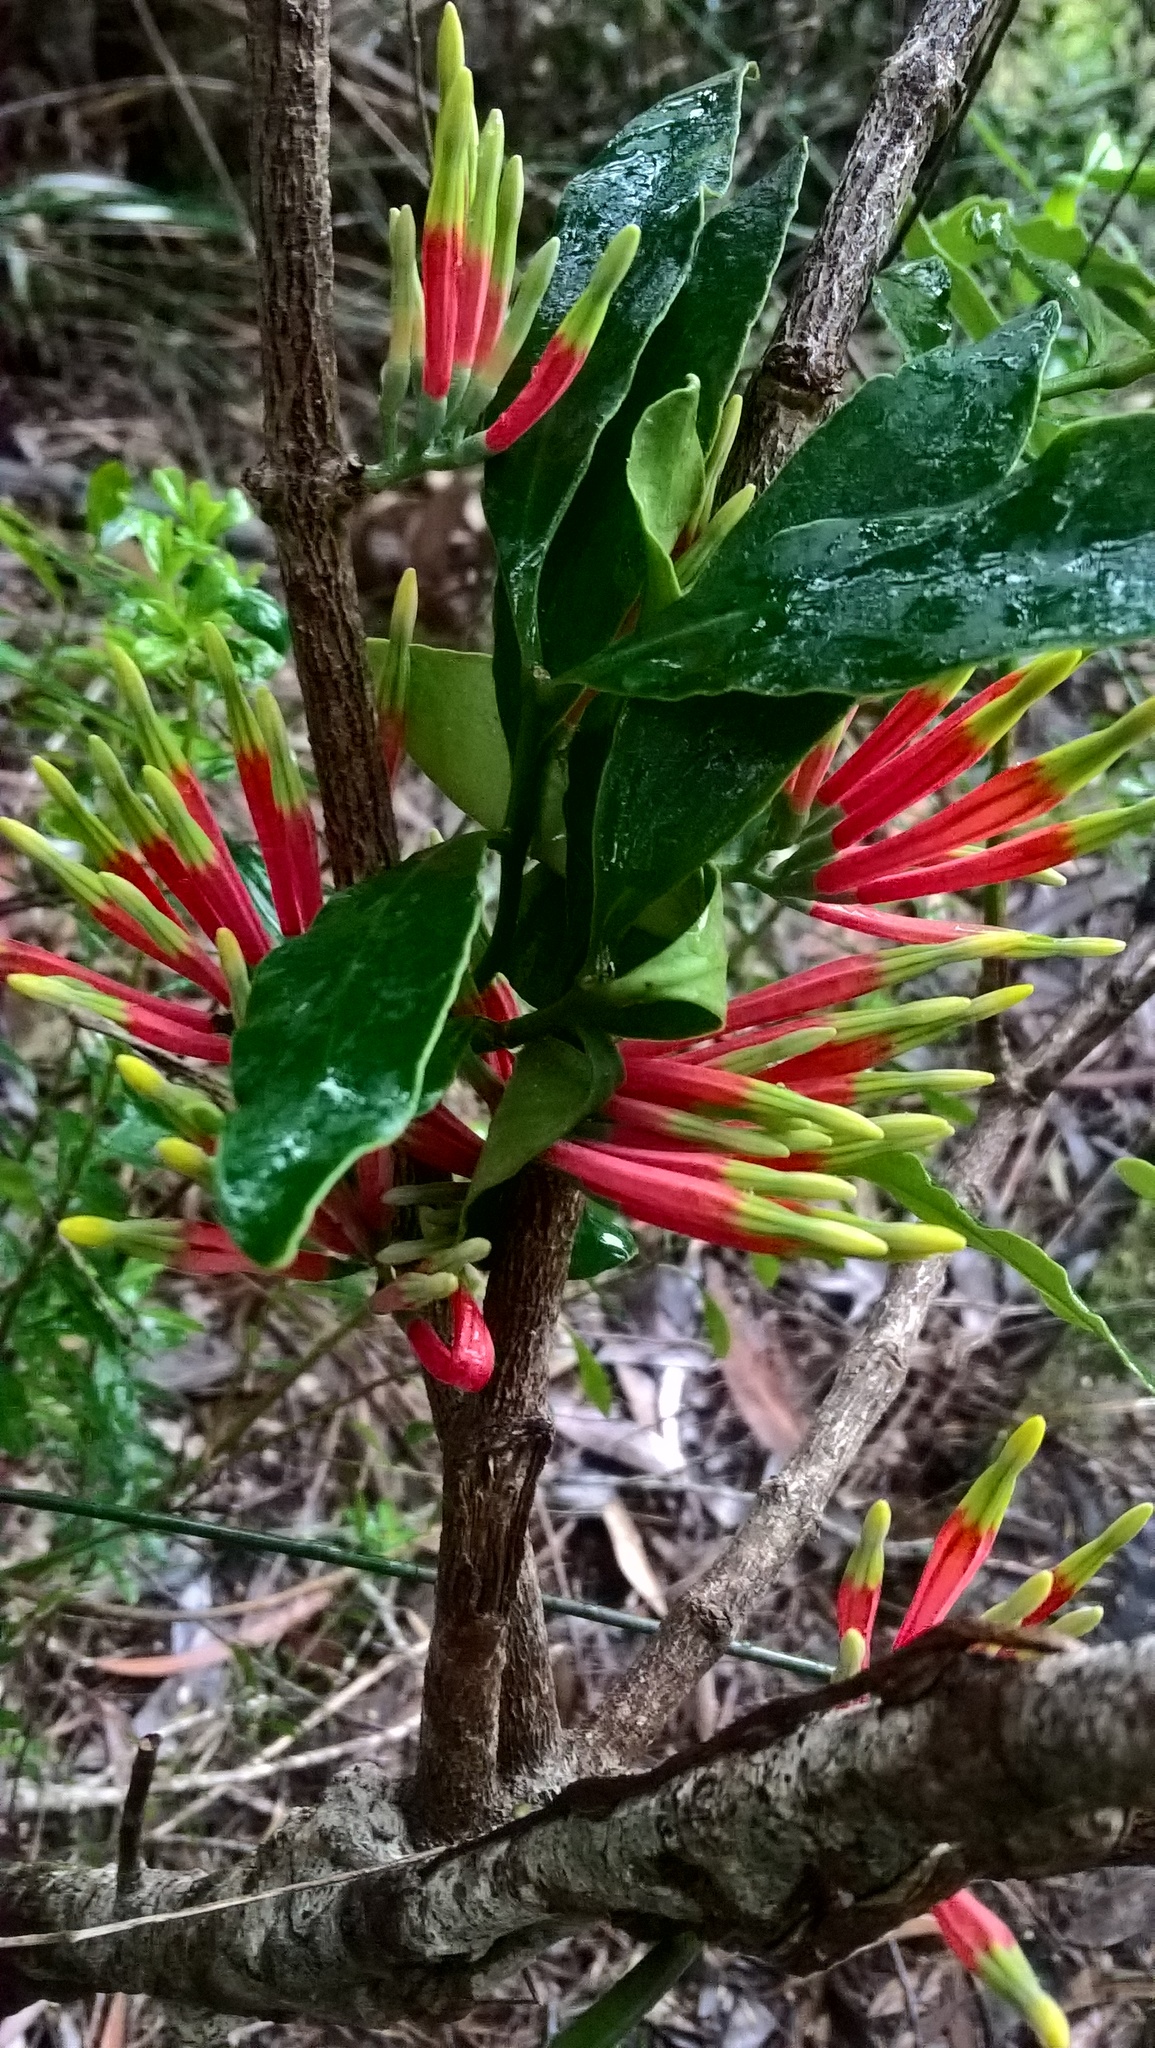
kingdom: Plantae
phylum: Tracheophyta
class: Magnoliopsida
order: Santalales
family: Loranthaceae
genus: Amylotheca
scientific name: Amylotheca dictyophleba
